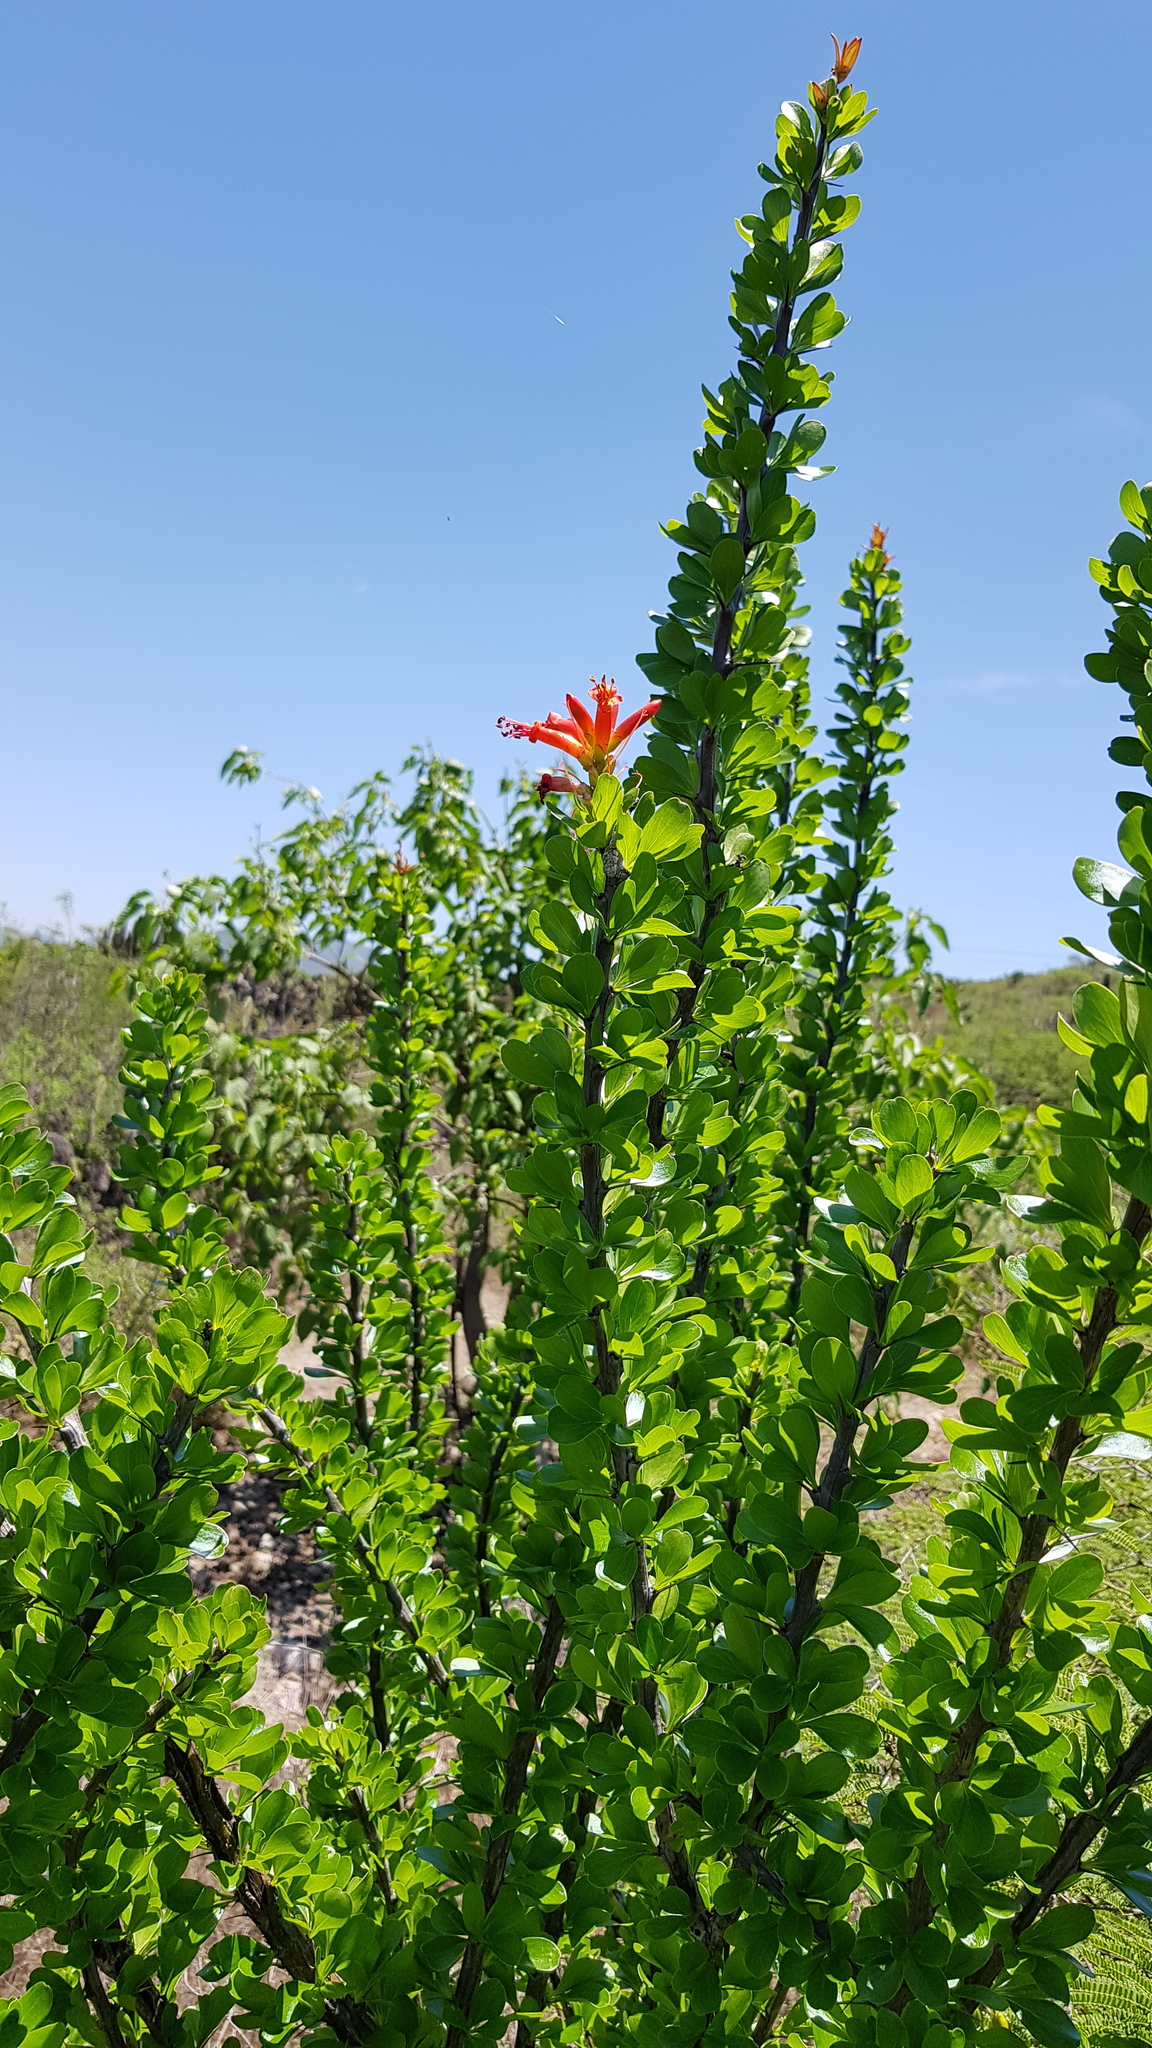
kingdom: Plantae
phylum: Tracheophyta
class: Magnoliopsida
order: Ericales
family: Fouquieriaceae
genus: Fouquieria
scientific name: Fouquieria formosa
